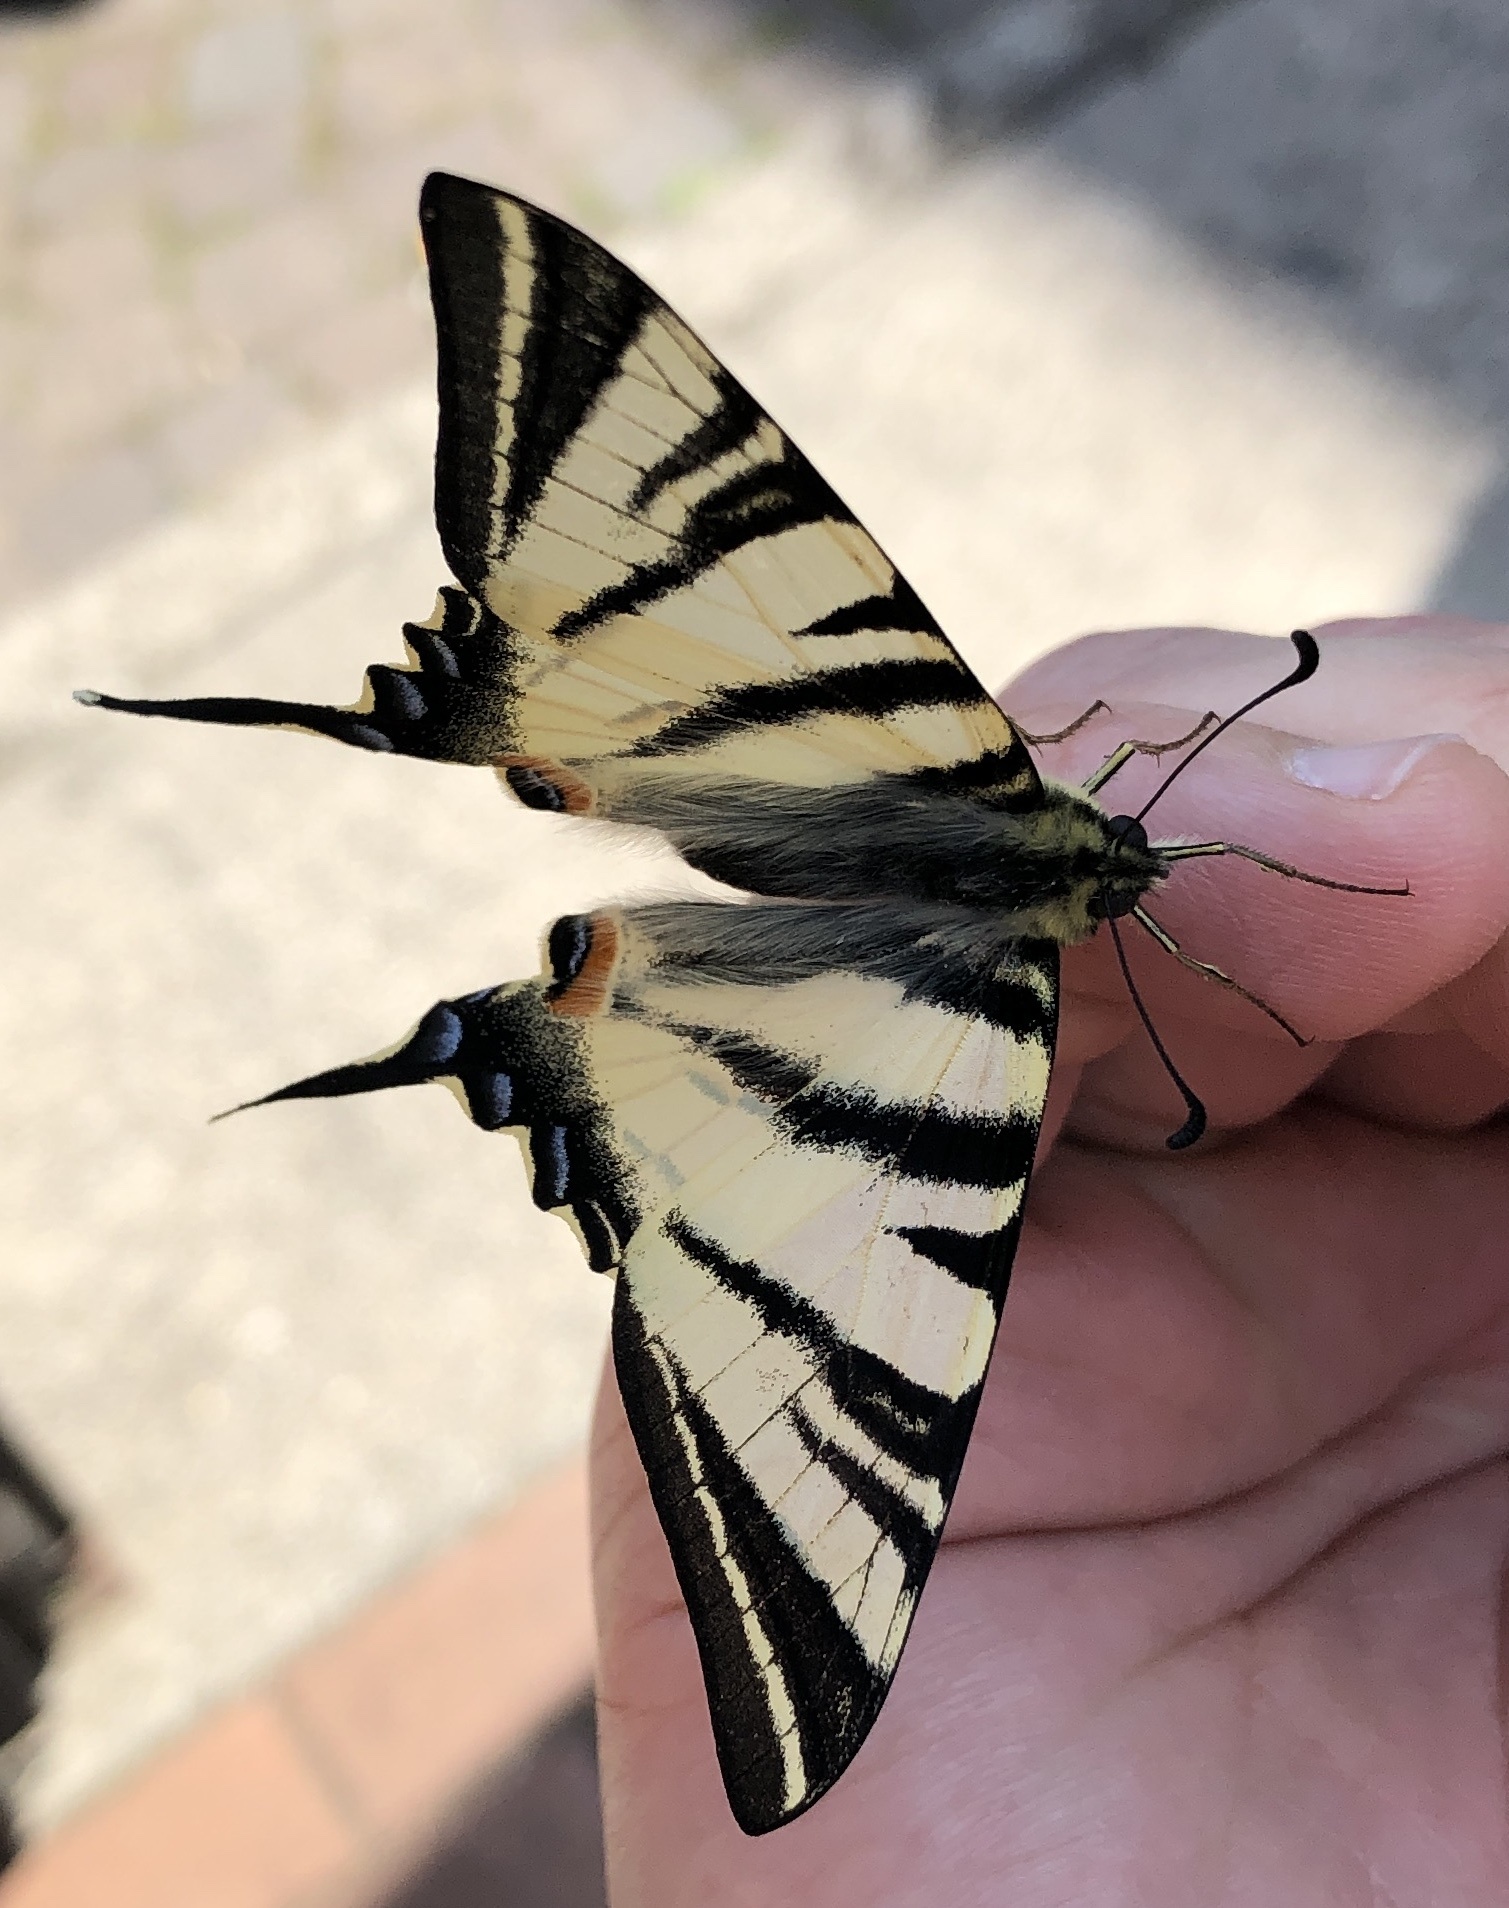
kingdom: Animalia
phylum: Arthropoda
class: Insecta
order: Lepidoptera
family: Papilionidae
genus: Iphiclides
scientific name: Iphiclides podalirius
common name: Scarce swallowtail
